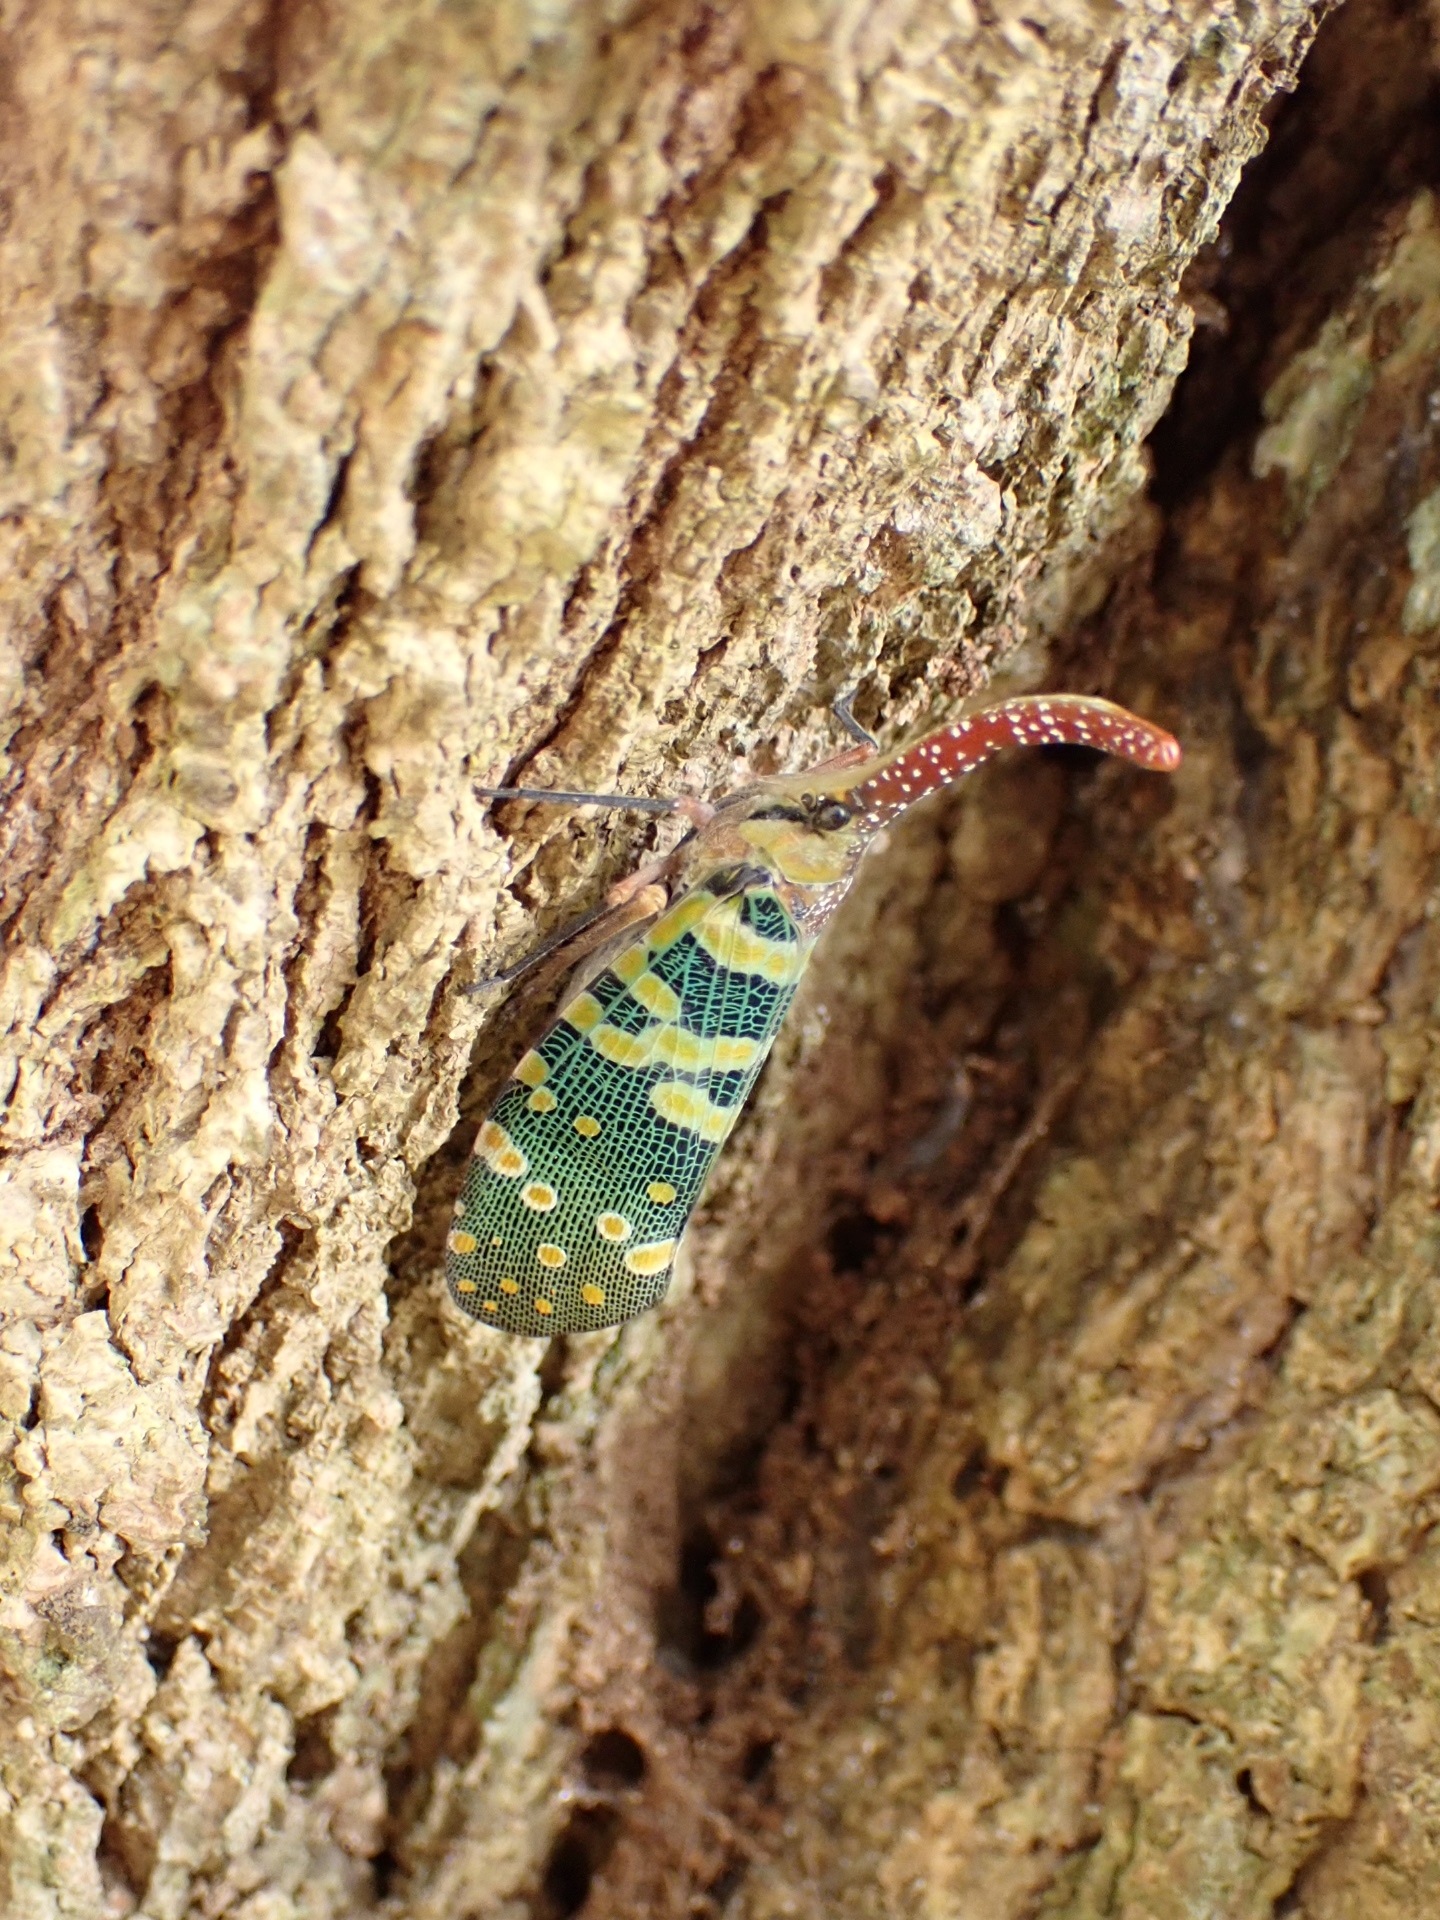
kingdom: Animalia
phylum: Arthropoda
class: Insecta
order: Hemiptera
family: Fulgoridae
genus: Pyrops
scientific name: Pyrops candelaria
